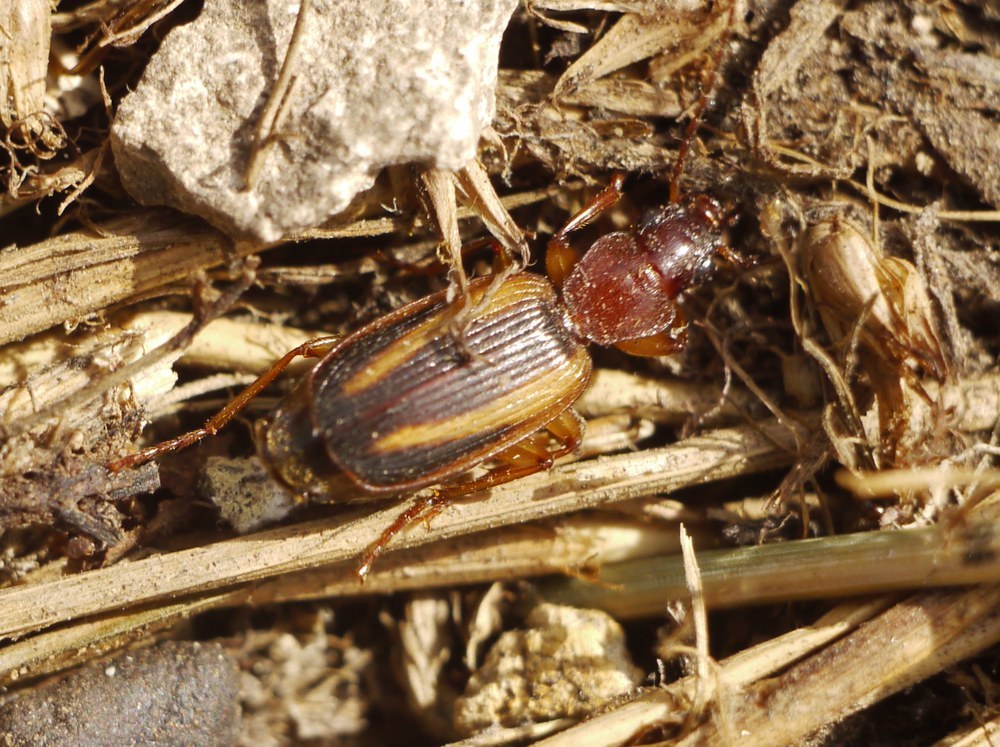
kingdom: Animalia
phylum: Arthropoda
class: Insecta
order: Coleoptera
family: Carabidae
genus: Cymindis
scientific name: Cymindis lineata
